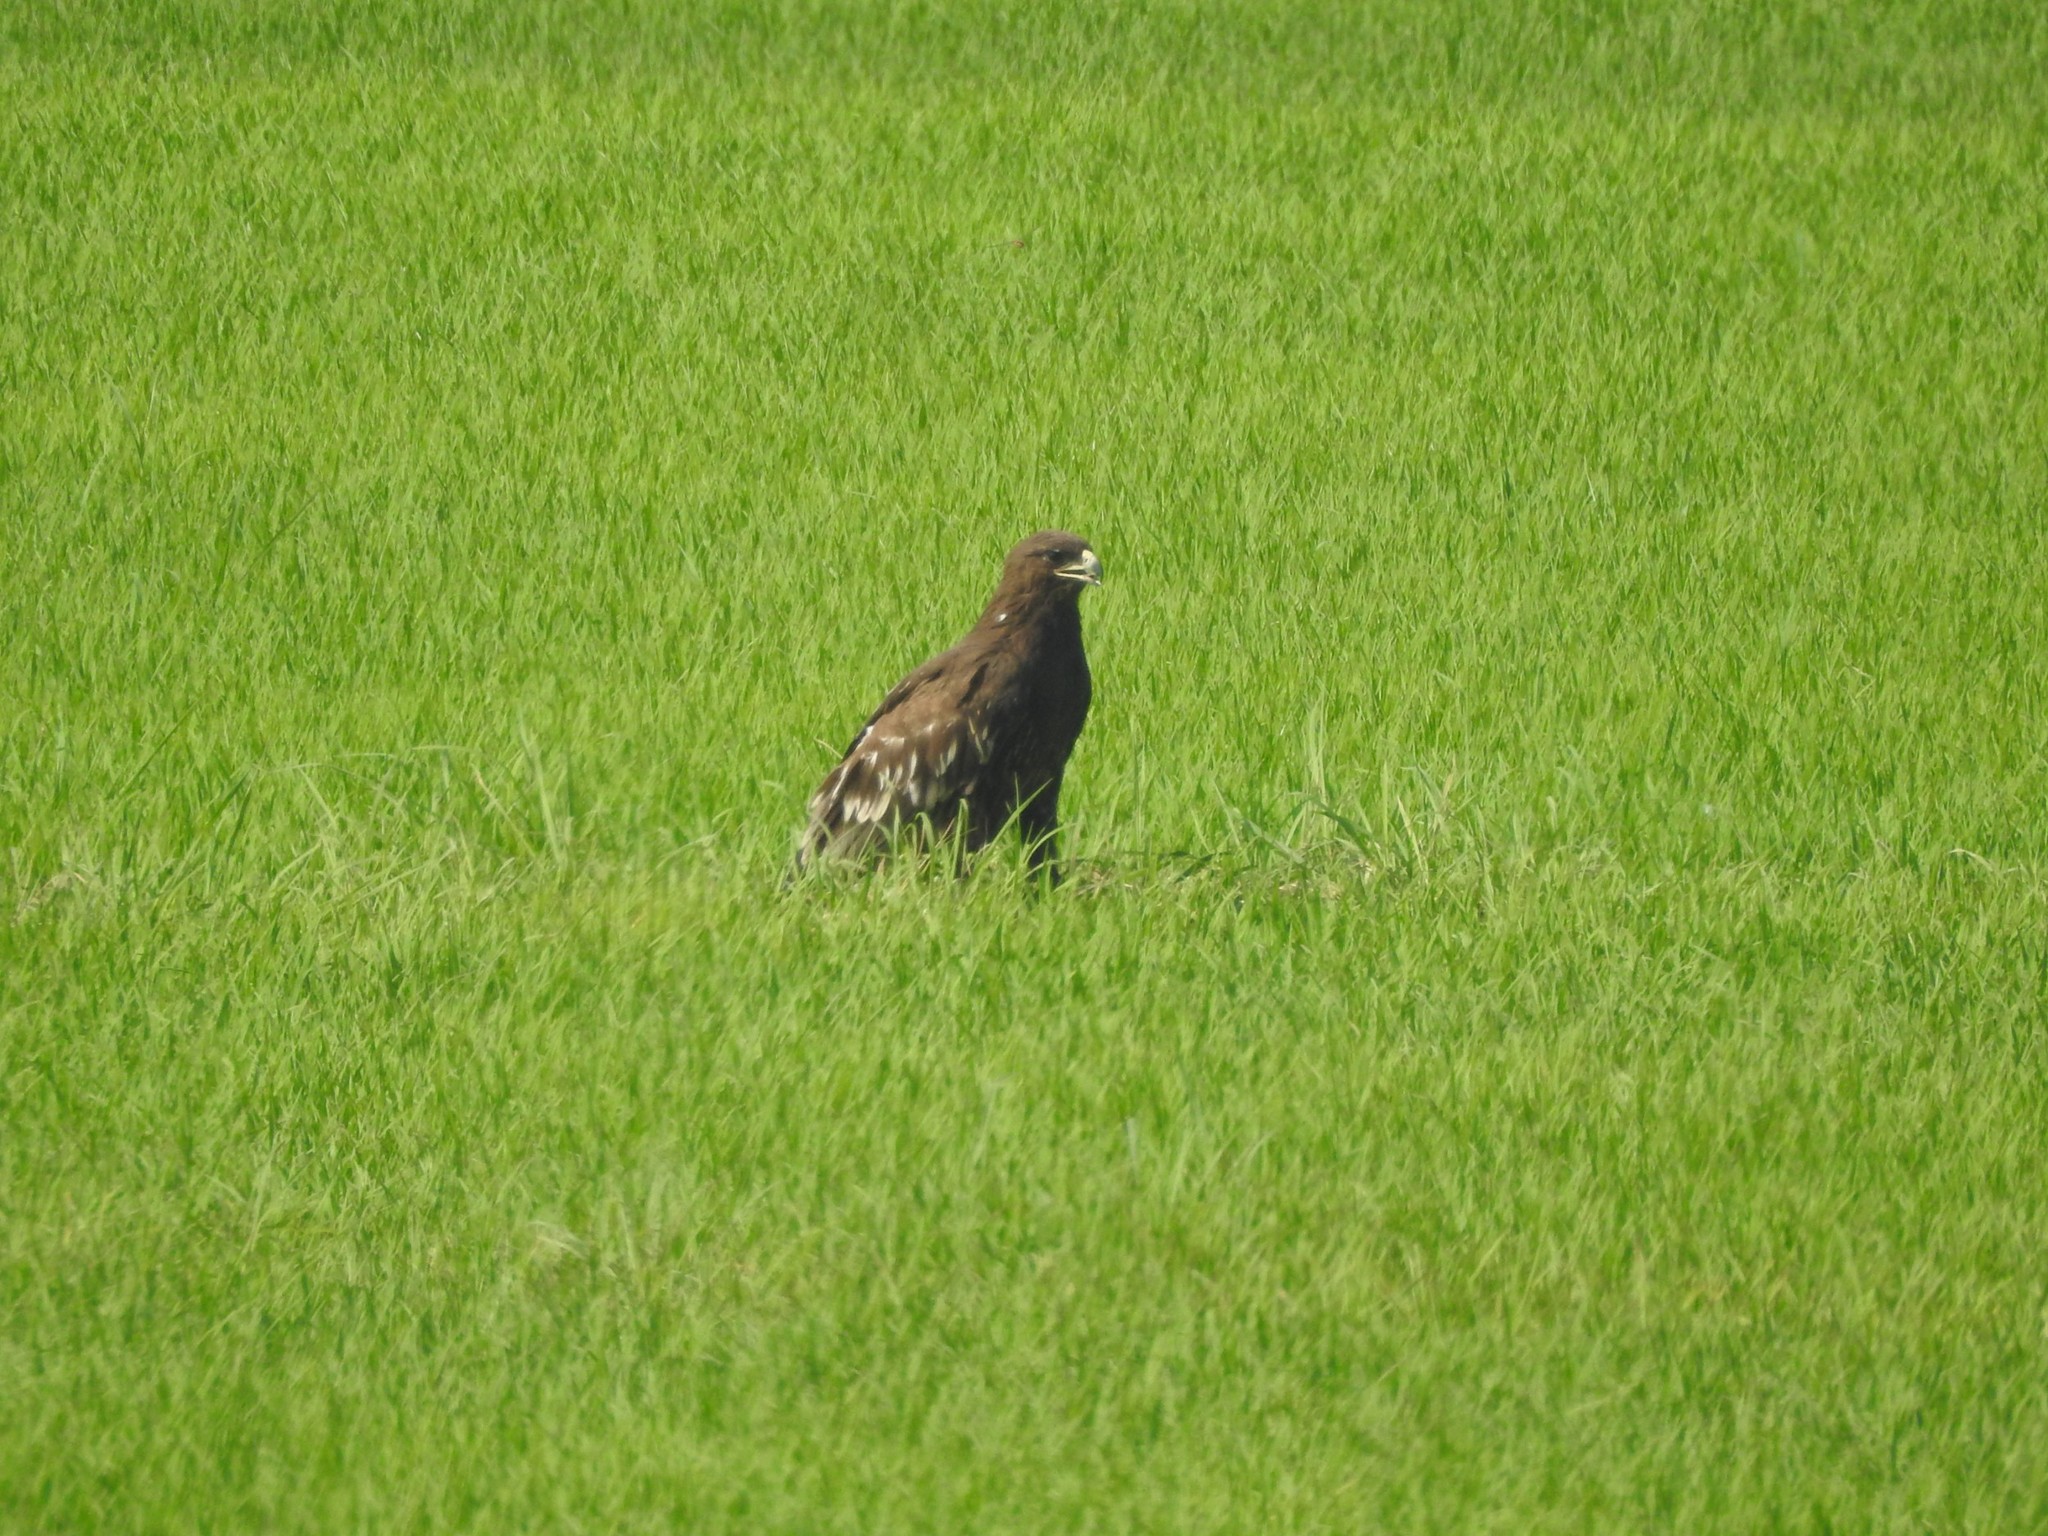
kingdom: Animalia
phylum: Chordata
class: Aves
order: Accipitriformes
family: Accipitridae
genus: Aquila
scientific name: Aquila clanga
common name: Greater spotted eagle
